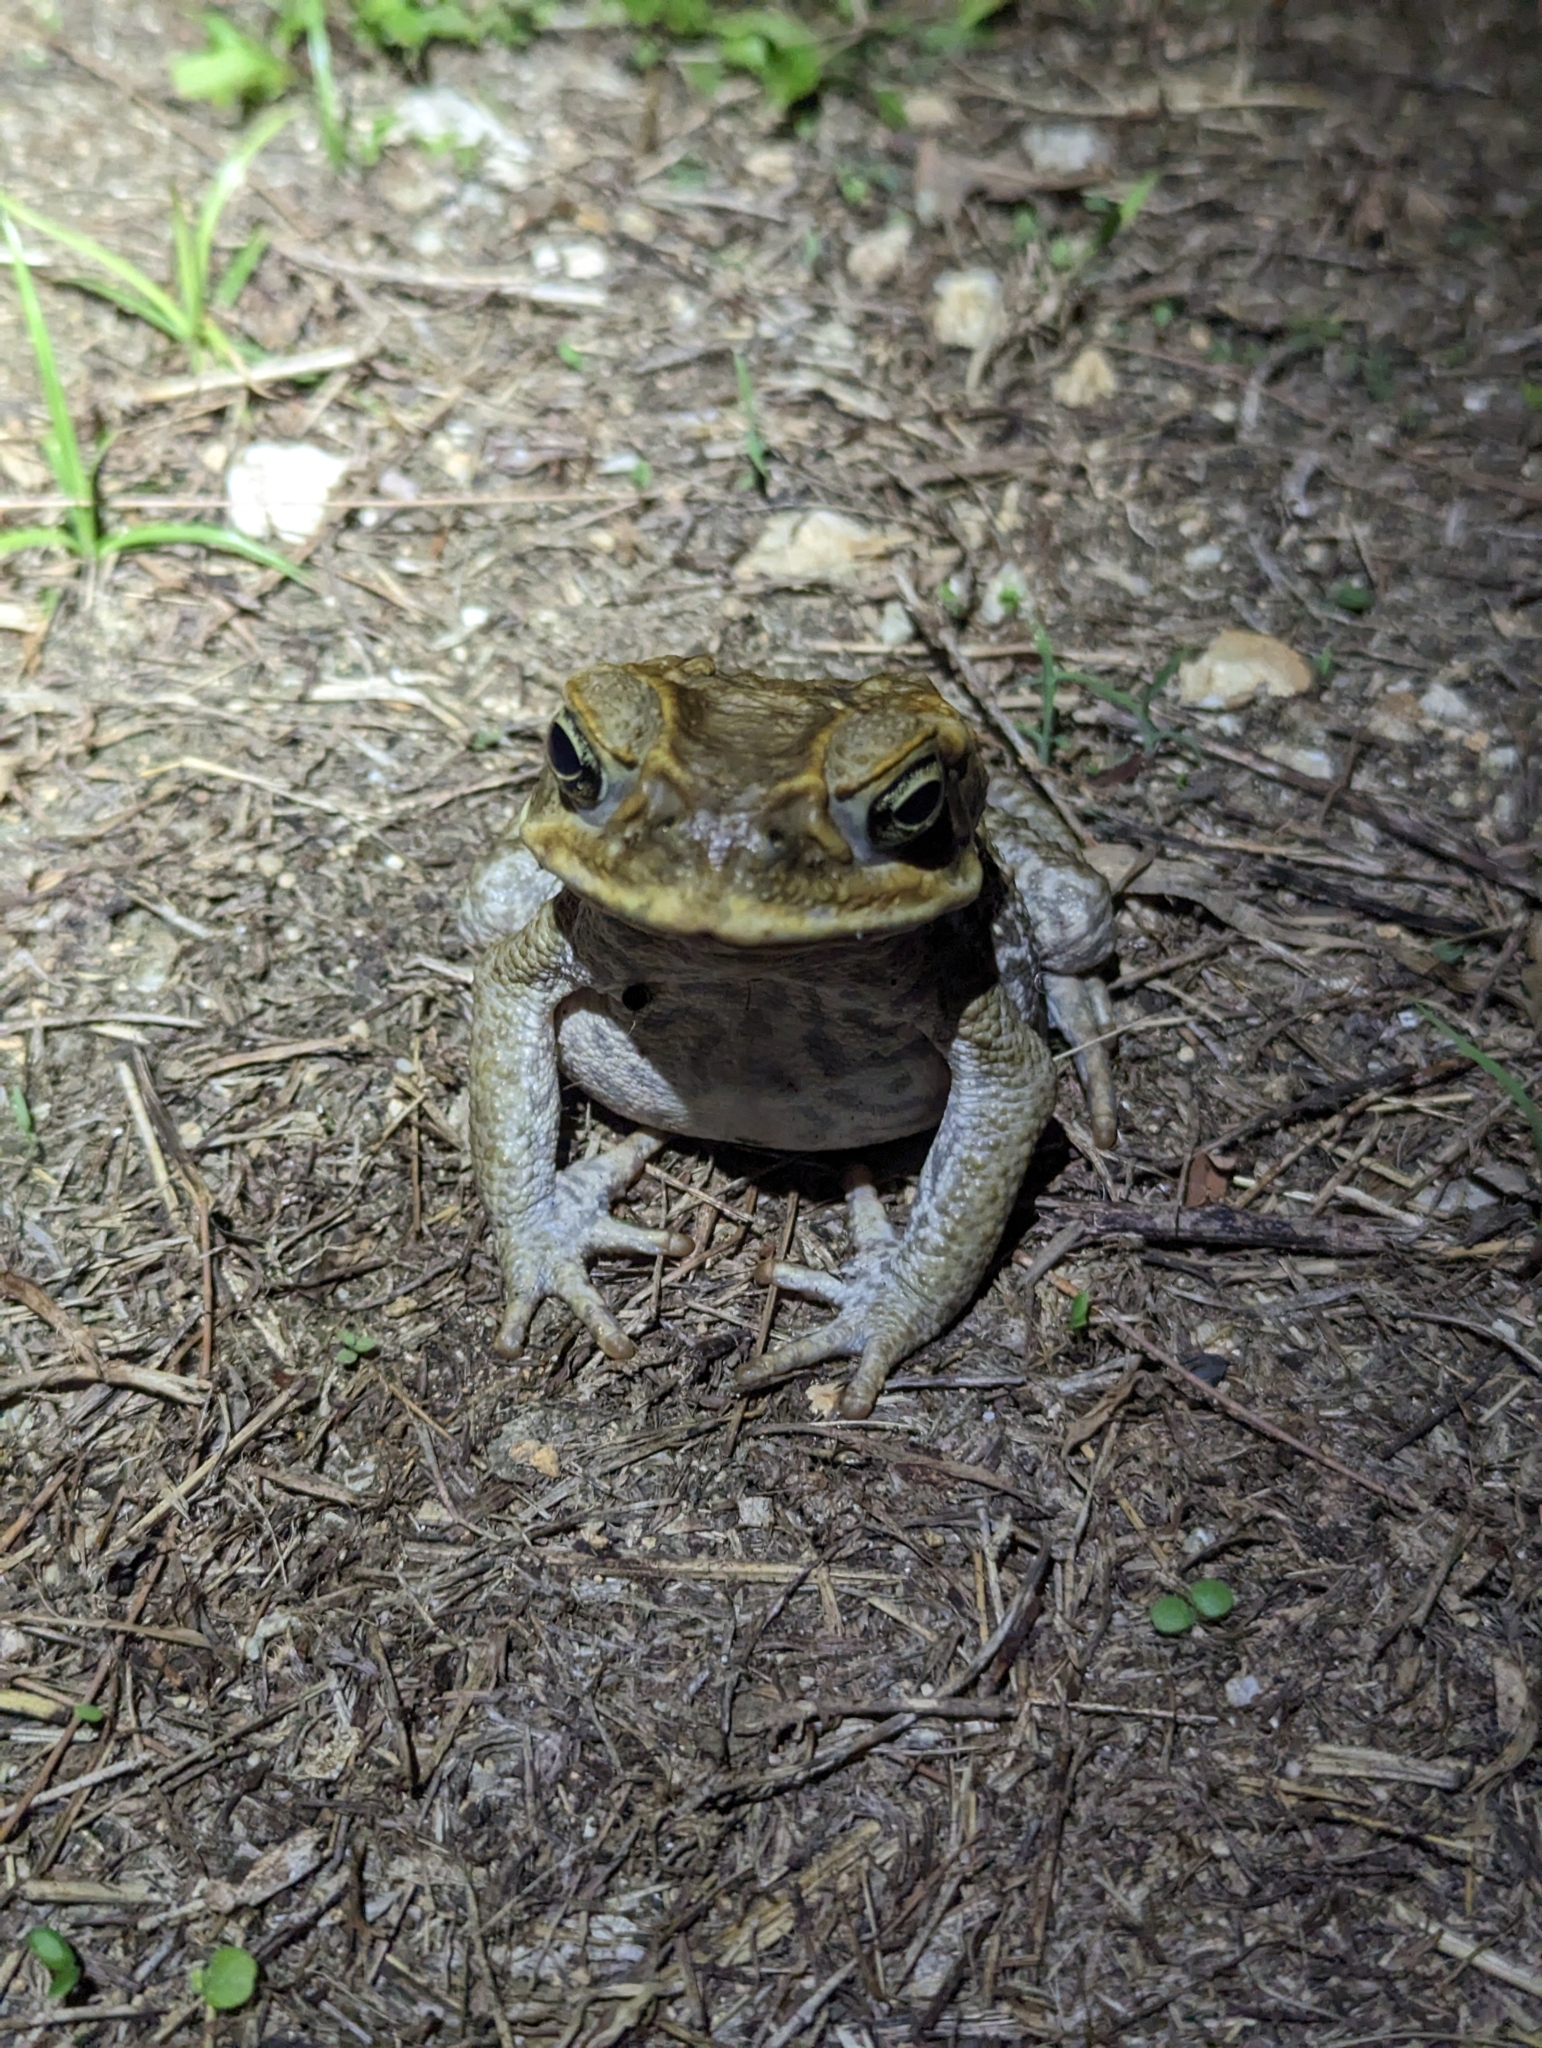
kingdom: Animalia
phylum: Chordata
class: Amphibia
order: Anura
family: Bufonidae
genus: Rhinella
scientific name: Rhinella marina
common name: Cane toad
